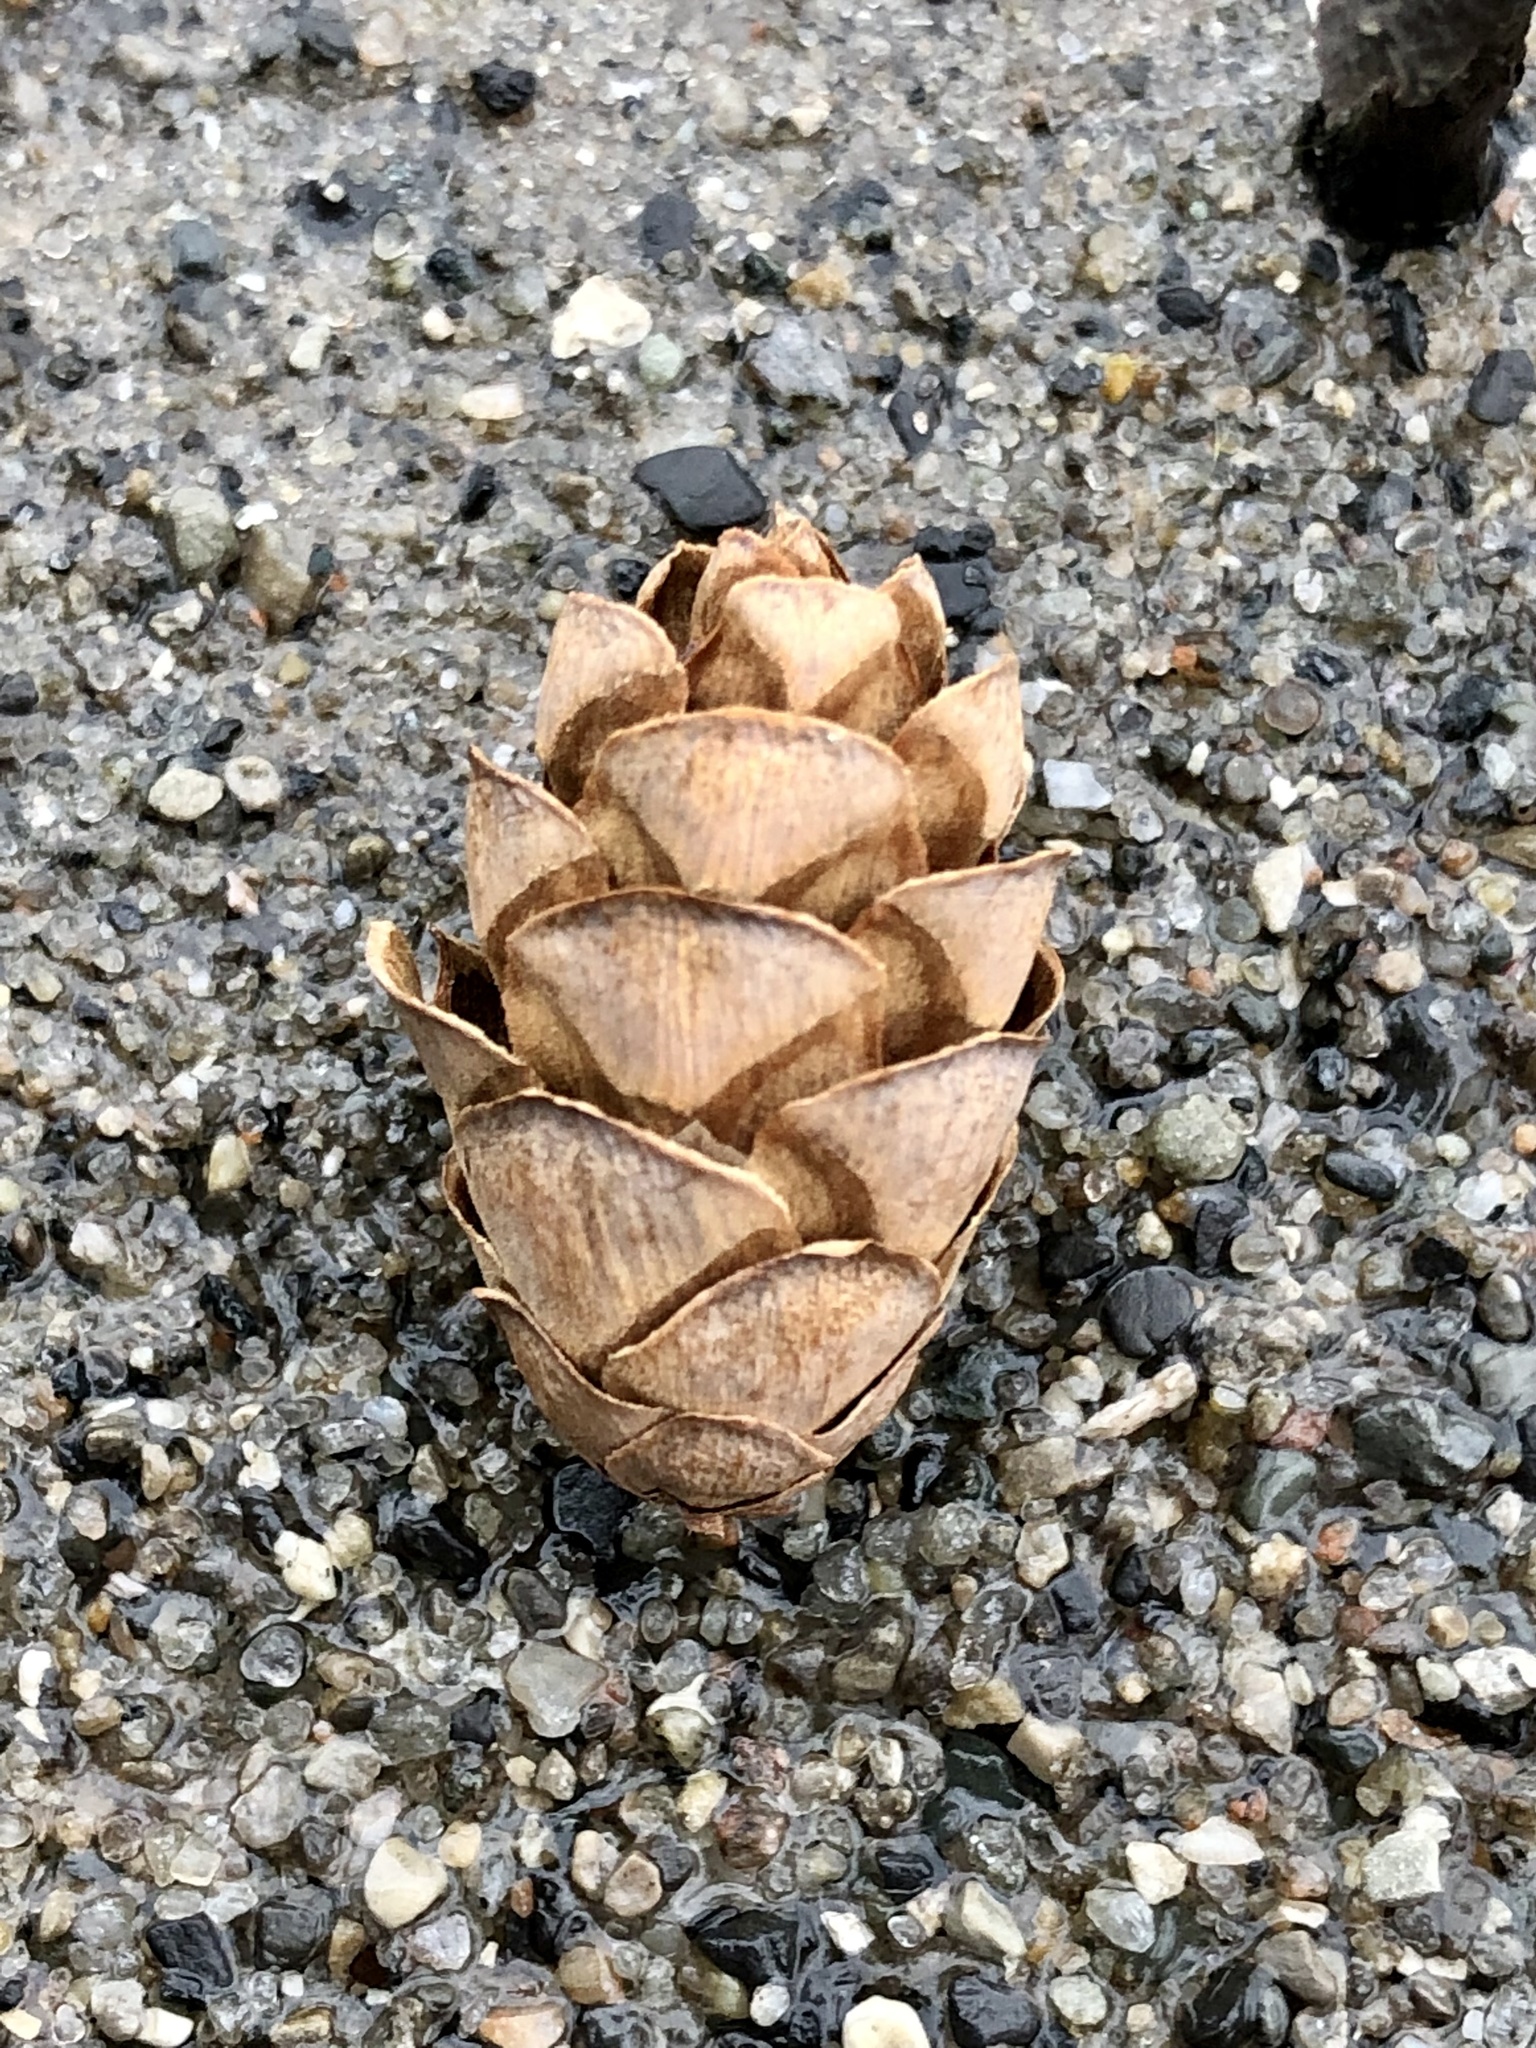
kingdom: Plantae
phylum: Tracheophyta
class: Pinopsida
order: Pinales
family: Pinaceae
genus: Tsuga
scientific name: Tsuga canadensis
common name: Eastern hemlock
